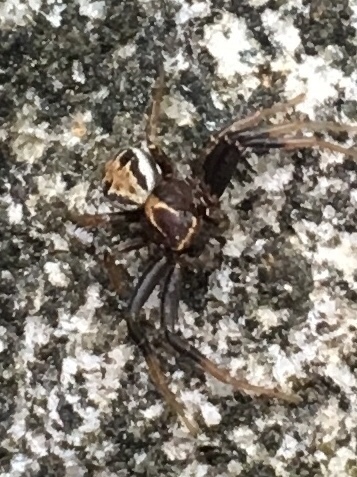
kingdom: Animalia
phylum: Arthropoda
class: Arachnida
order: Araneae
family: Thomisidae
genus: Xysticus
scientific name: Xysticus cristatus
